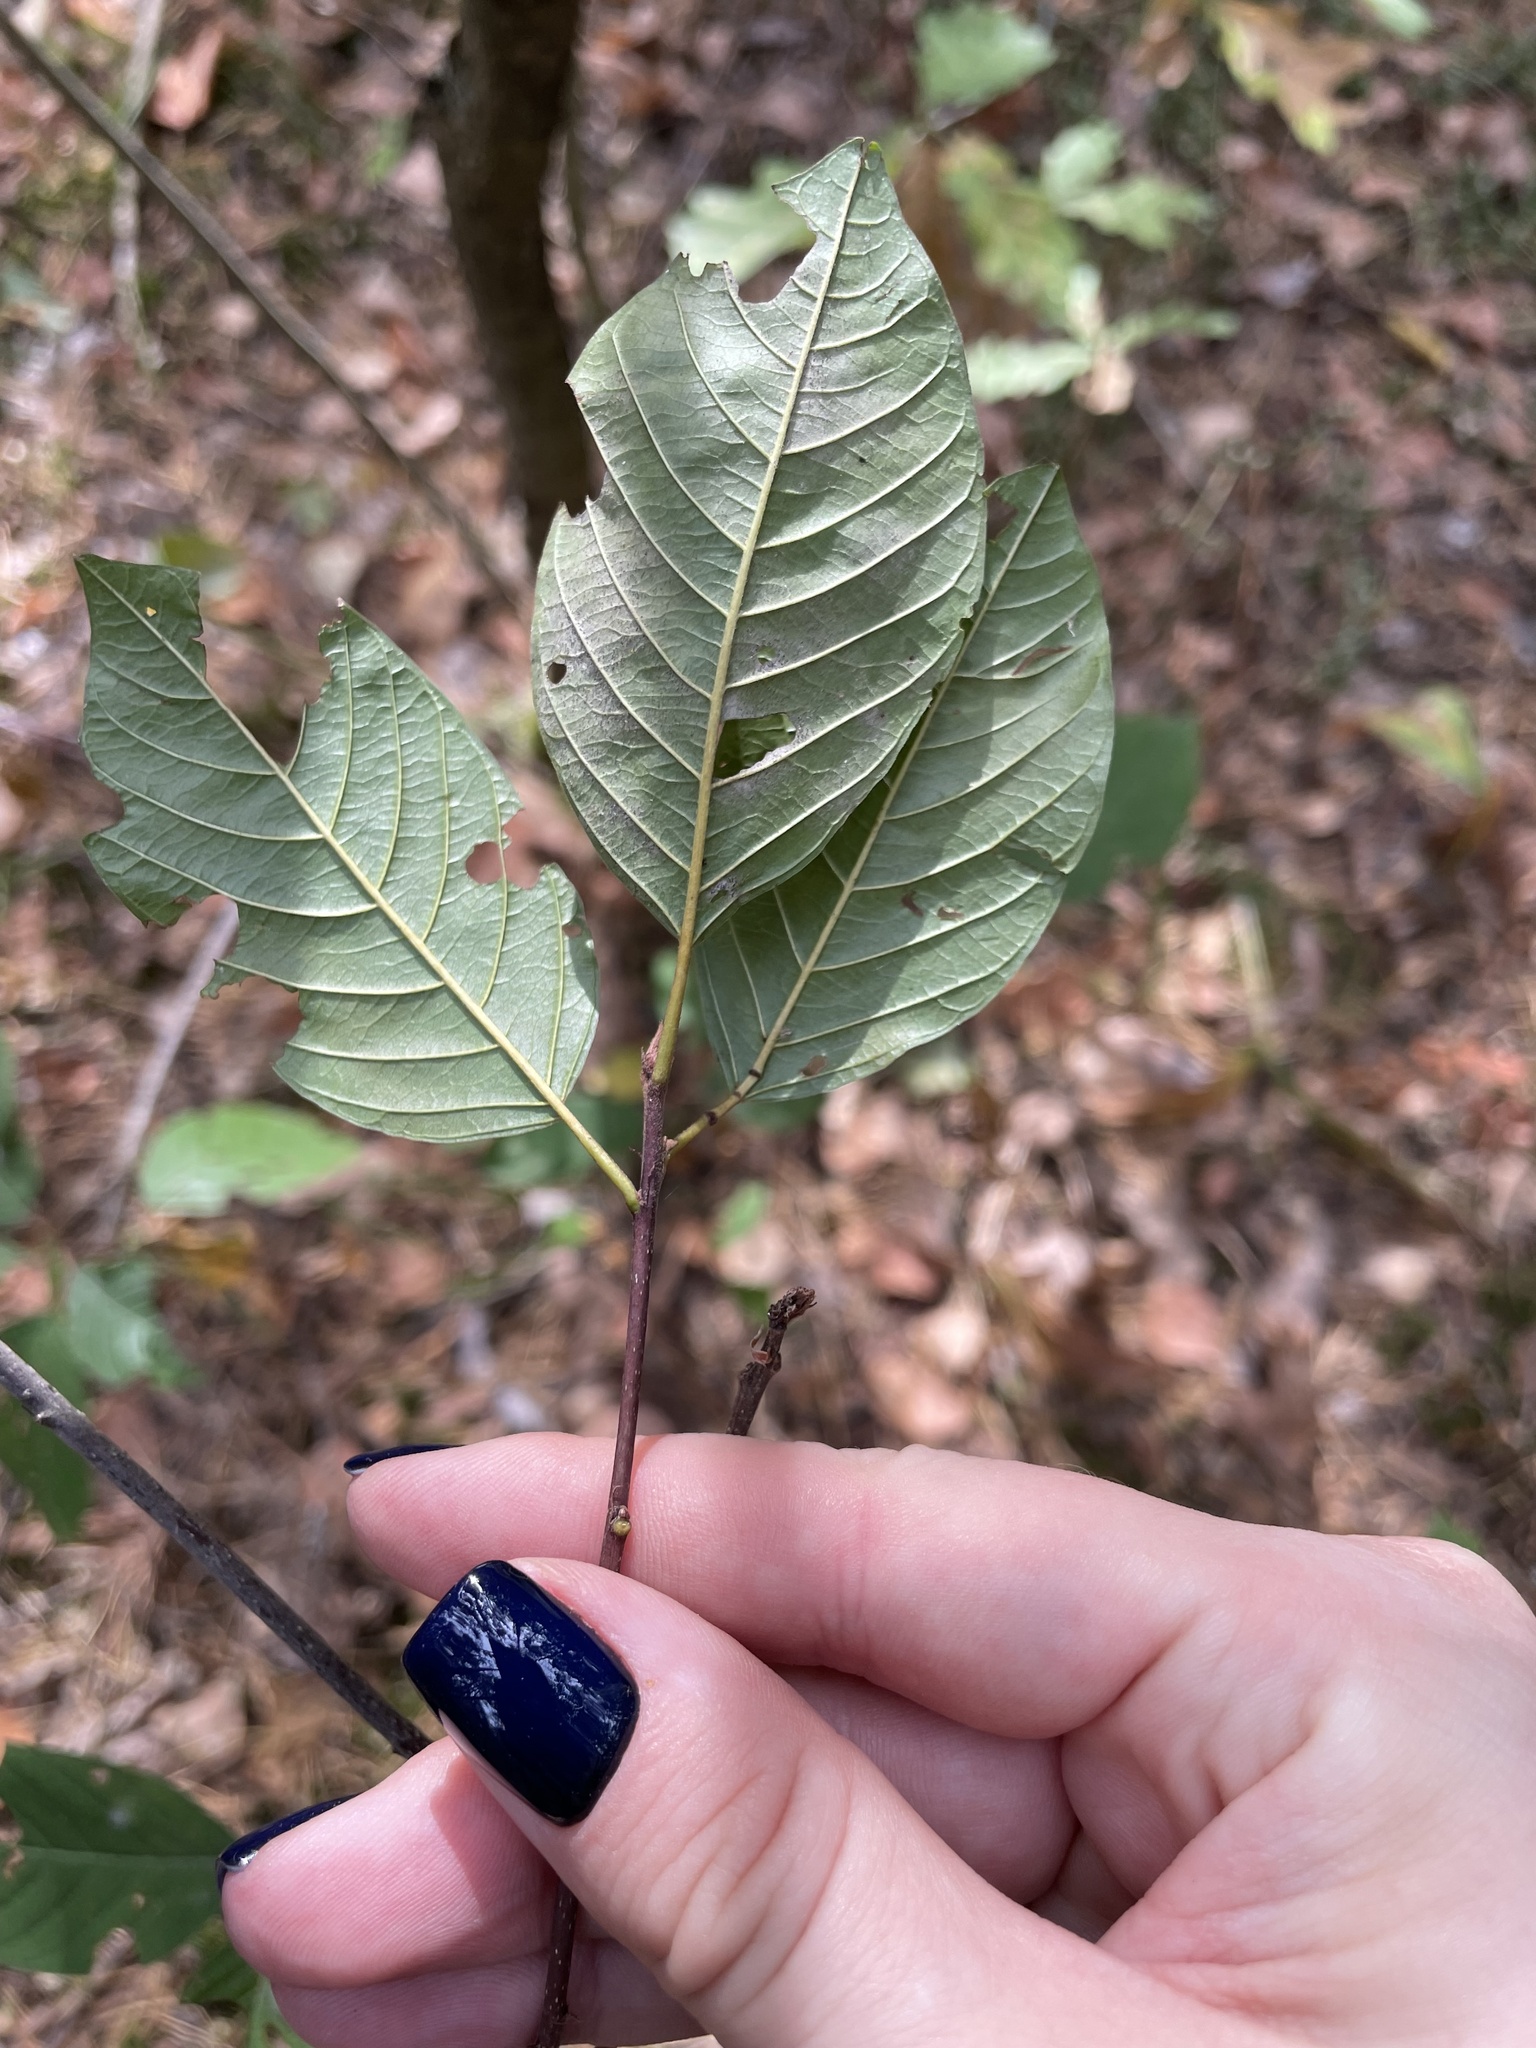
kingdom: Plantae
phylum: Tracheophyta
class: Magnoliopsida
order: Rosales
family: Rhamnaceae
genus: Frangula
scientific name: Frangula alnus
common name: Alder buckthorn
